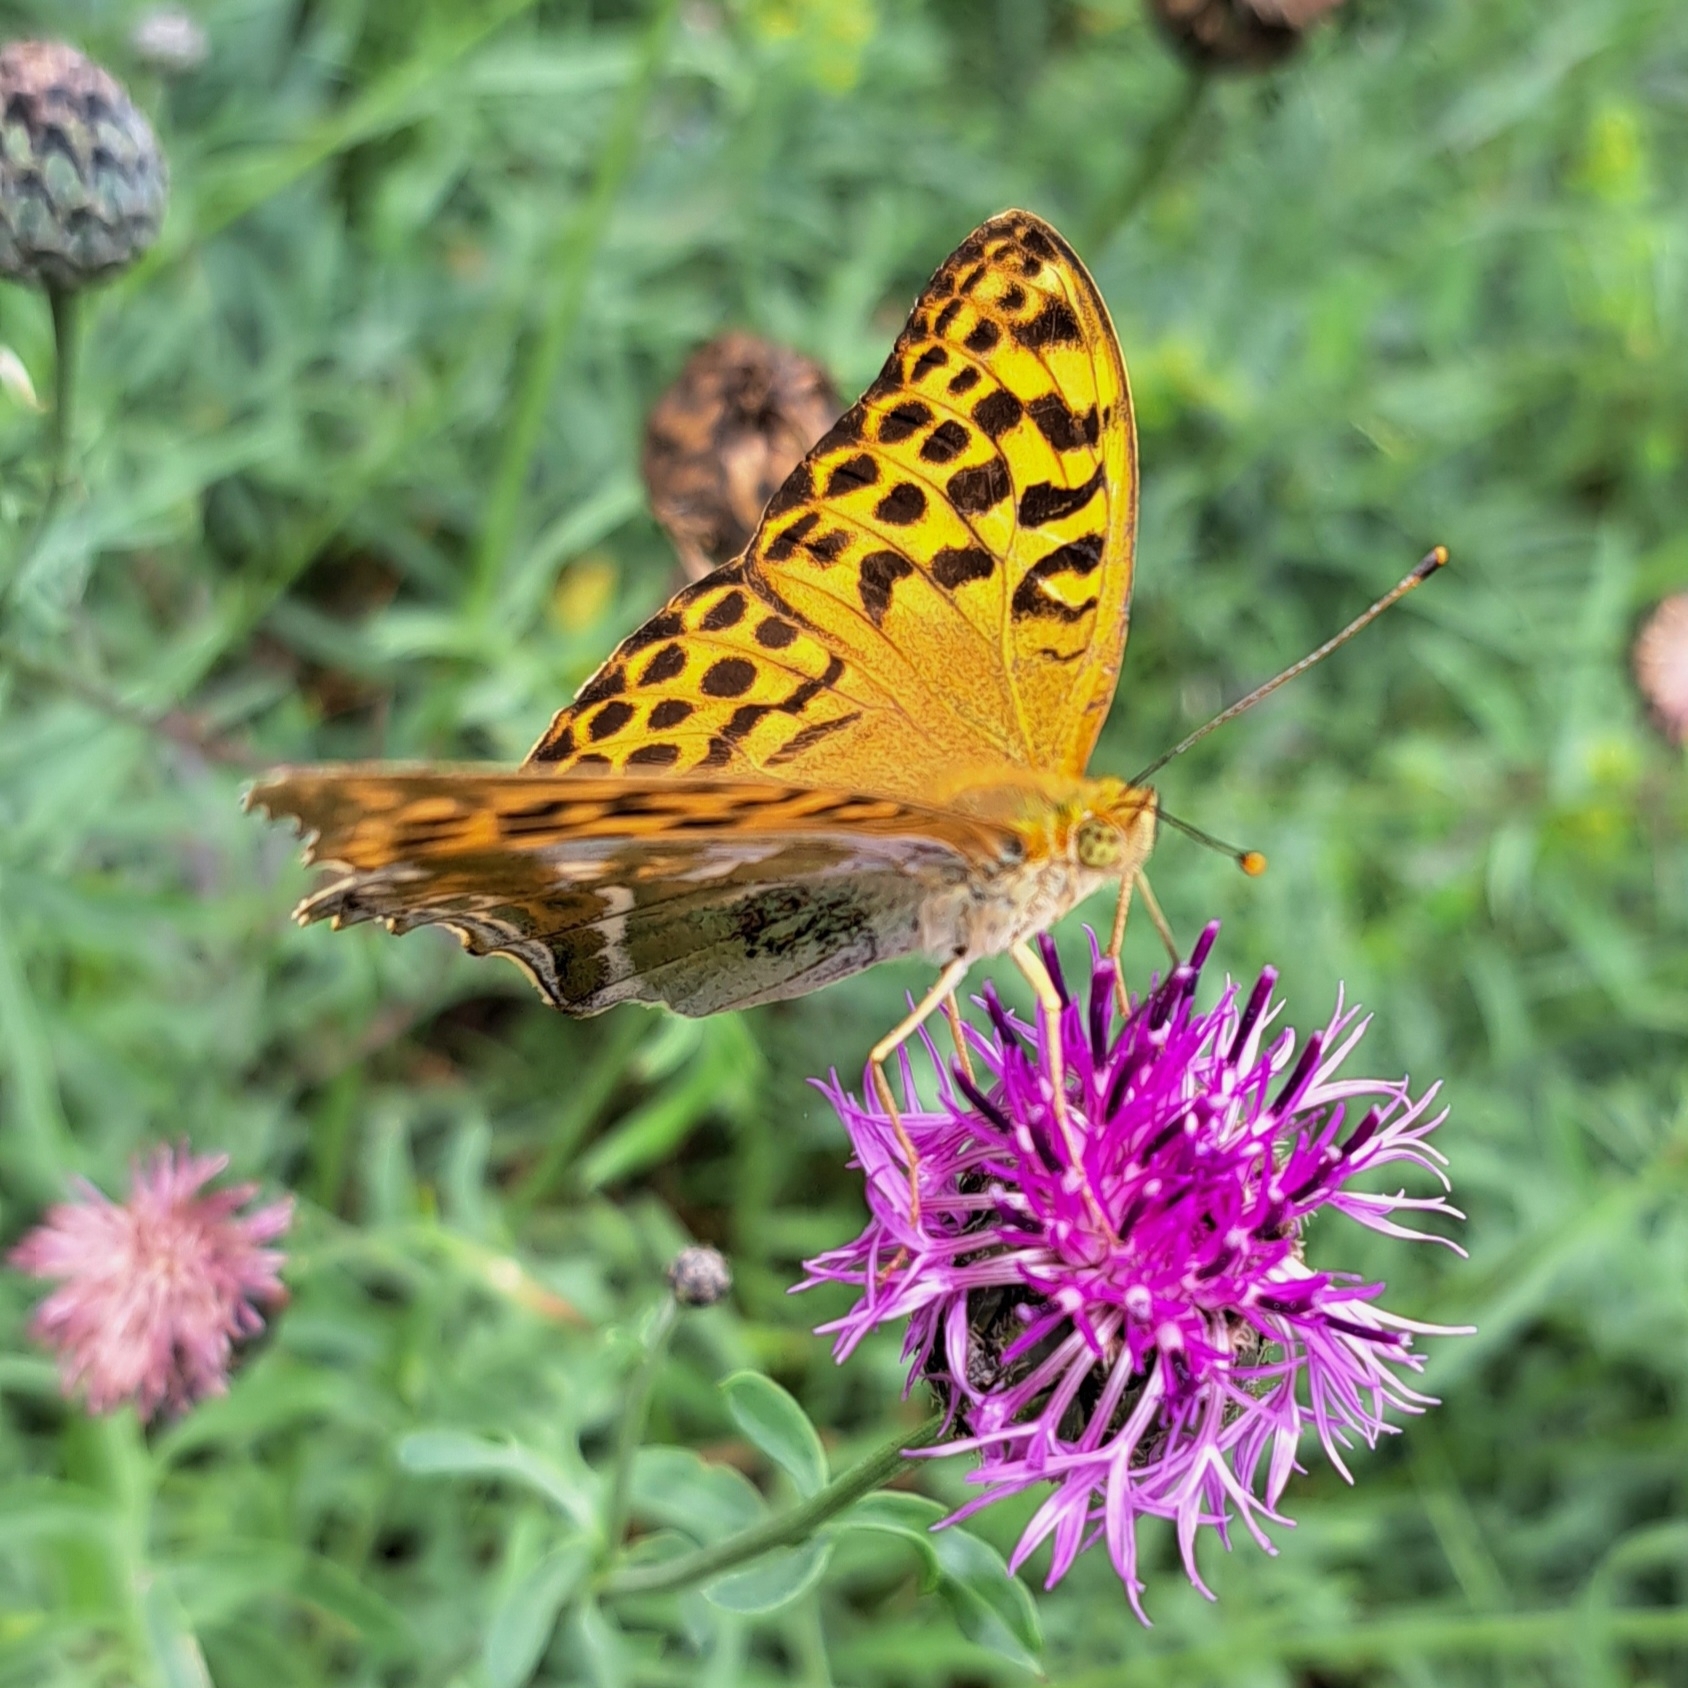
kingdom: Animalia
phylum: Arthropoda
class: Insecta
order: Lepidoptera
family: Nymphalidae
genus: Argynnis
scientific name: Argynnis paphia
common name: Silver-washed fritillary
